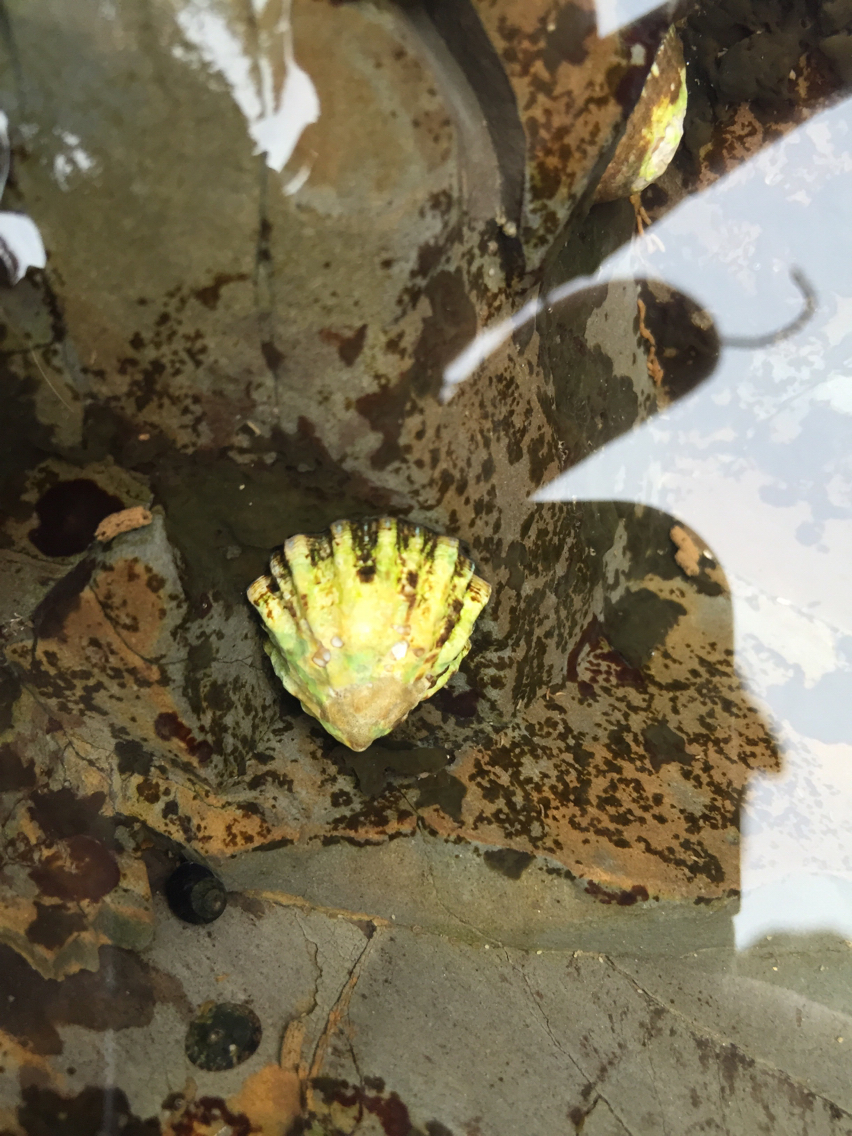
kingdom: Animalia
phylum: Mollusca
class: Gastropoda
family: Lottiidae
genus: Lottia
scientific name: Lottia scabra
